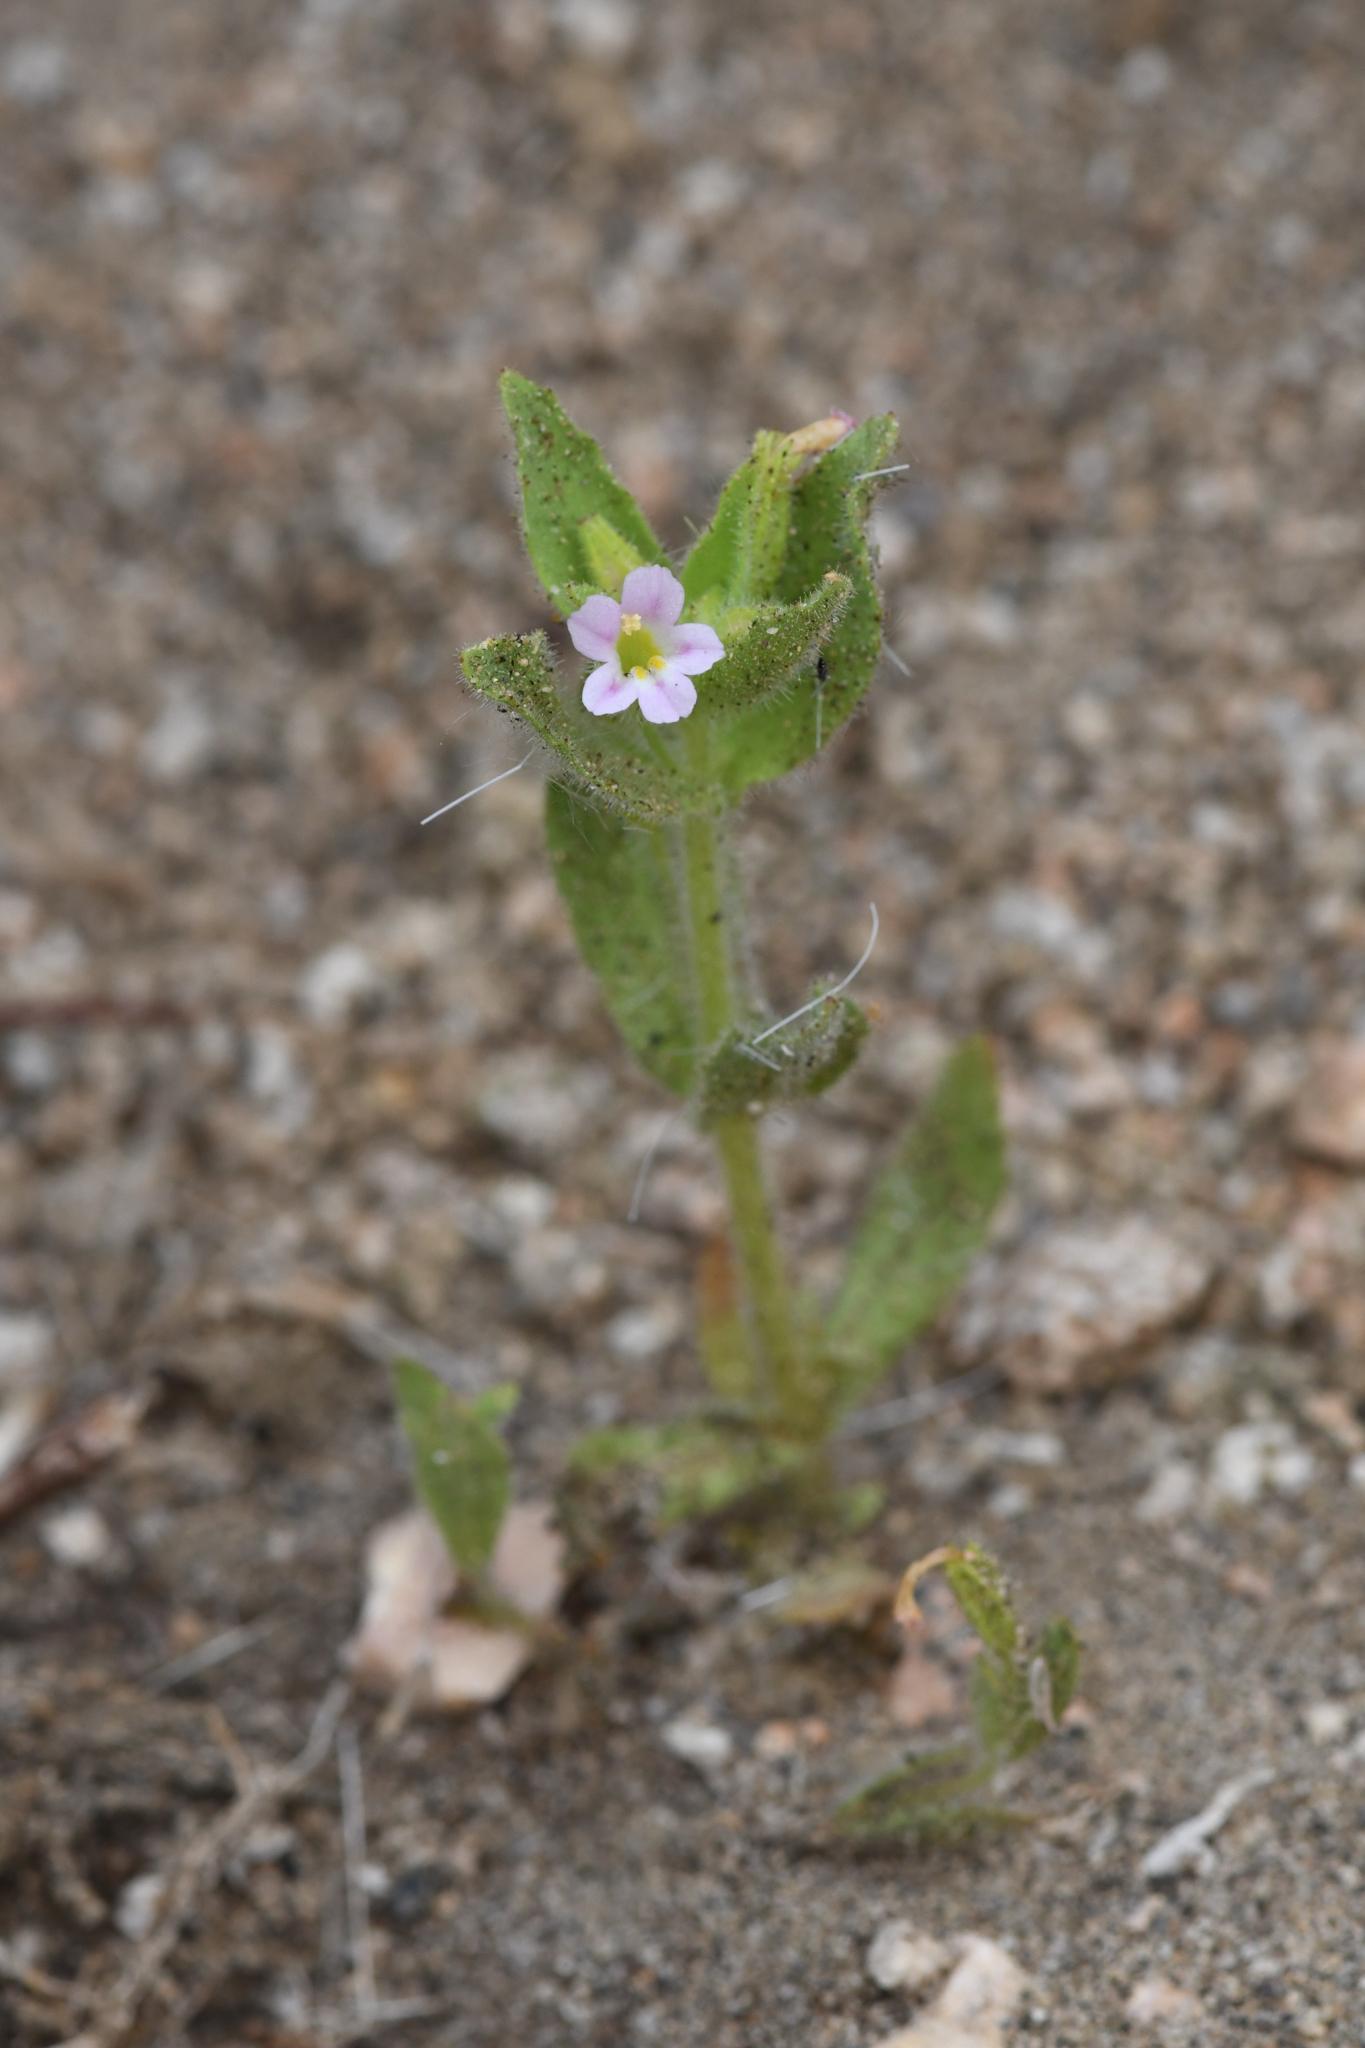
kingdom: Plantae
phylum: Tracheophyta
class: Magnoliopsida
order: Lamiales
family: Phrymaceae
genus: Erythranthe
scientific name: Erythranthe parishii
